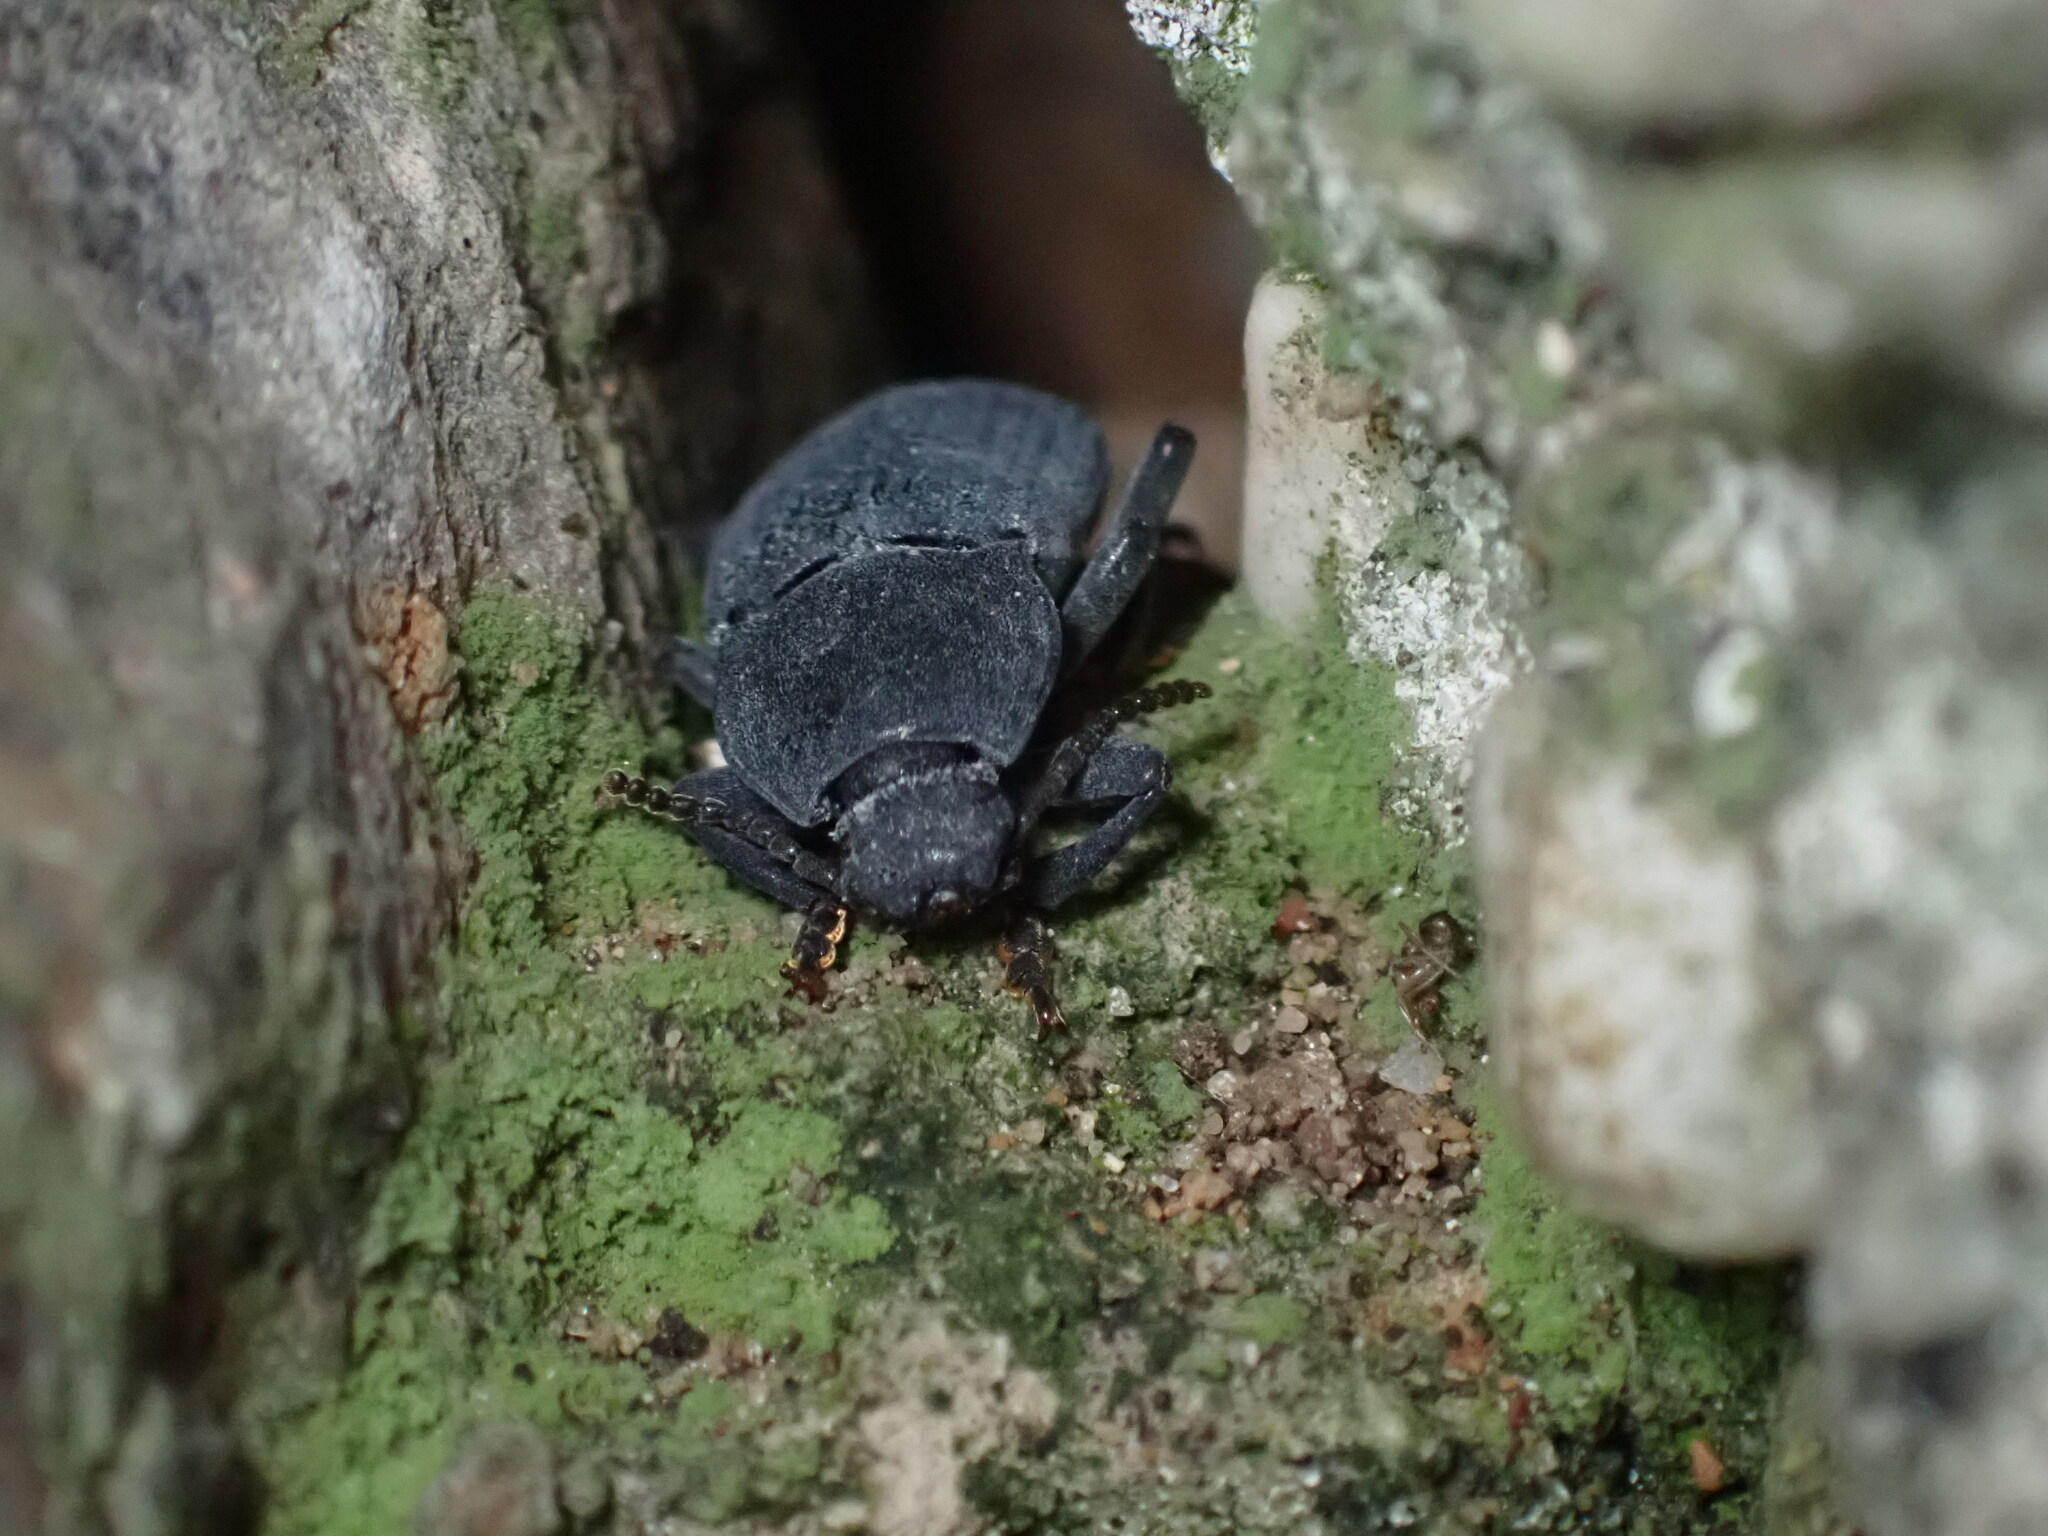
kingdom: Animalia
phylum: Arthropoda
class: Insecta
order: Coleoptera
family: Tenebrionidae
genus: Dendarus
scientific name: Dendarus coarcticollis
